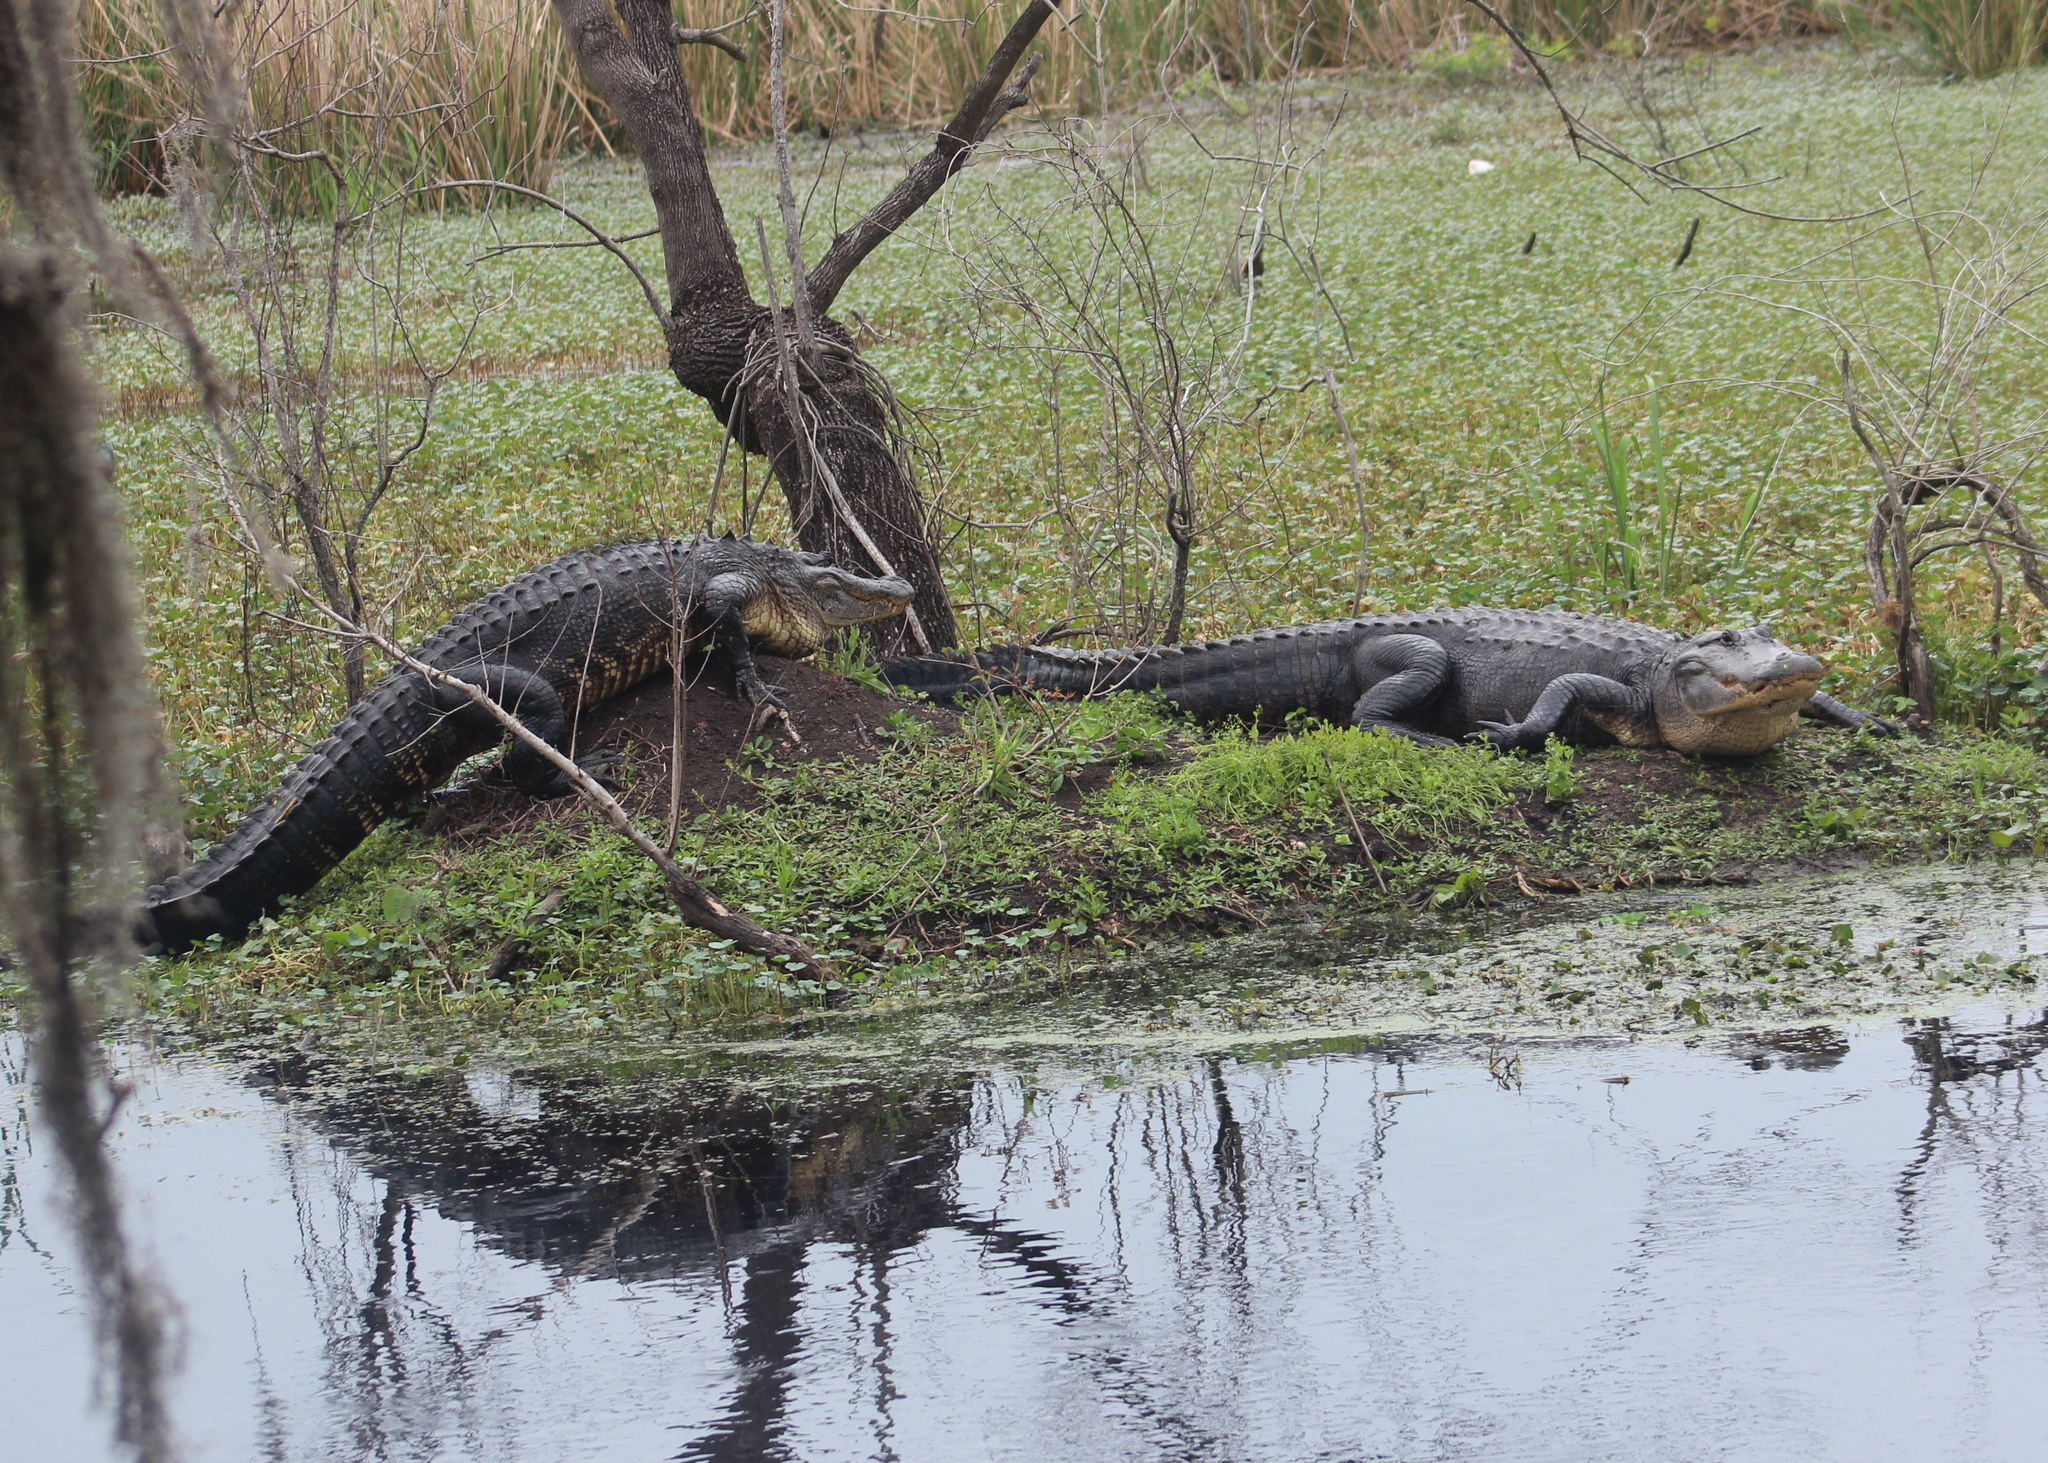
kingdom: Animalia
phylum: Chordata
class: Crocodylia
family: Alligatoridae
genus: Alligator
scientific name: Alligator mississippiensis
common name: American alligator
